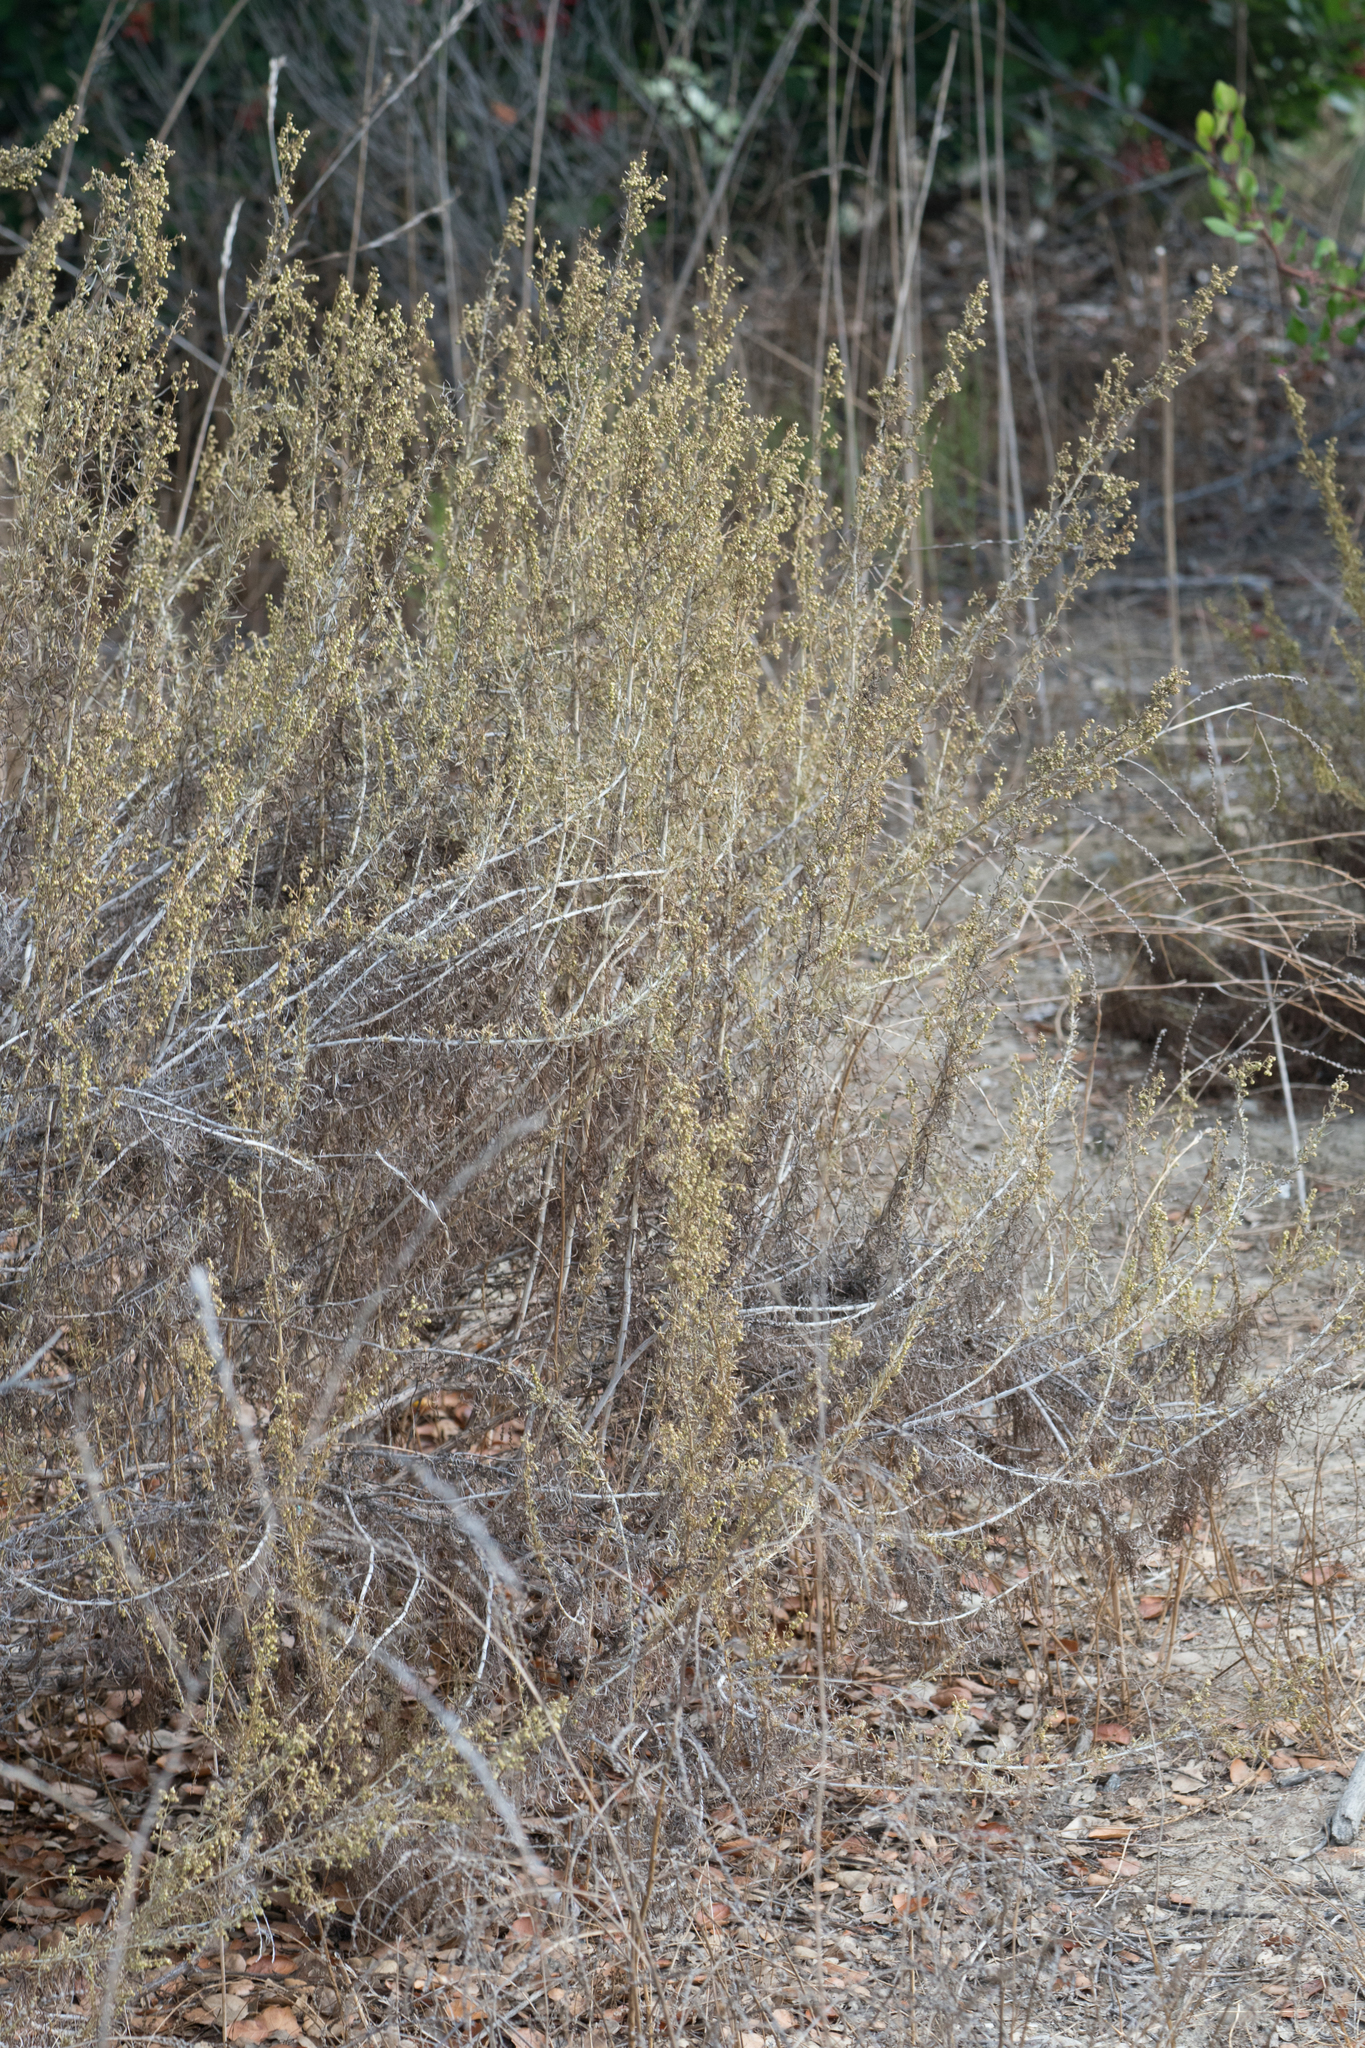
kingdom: Plantae
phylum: Tracheophyta
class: Magnoliopsida
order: Asterales
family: Asteraceae
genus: Artemisia
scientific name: Artemisia californica
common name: California sagebrush
